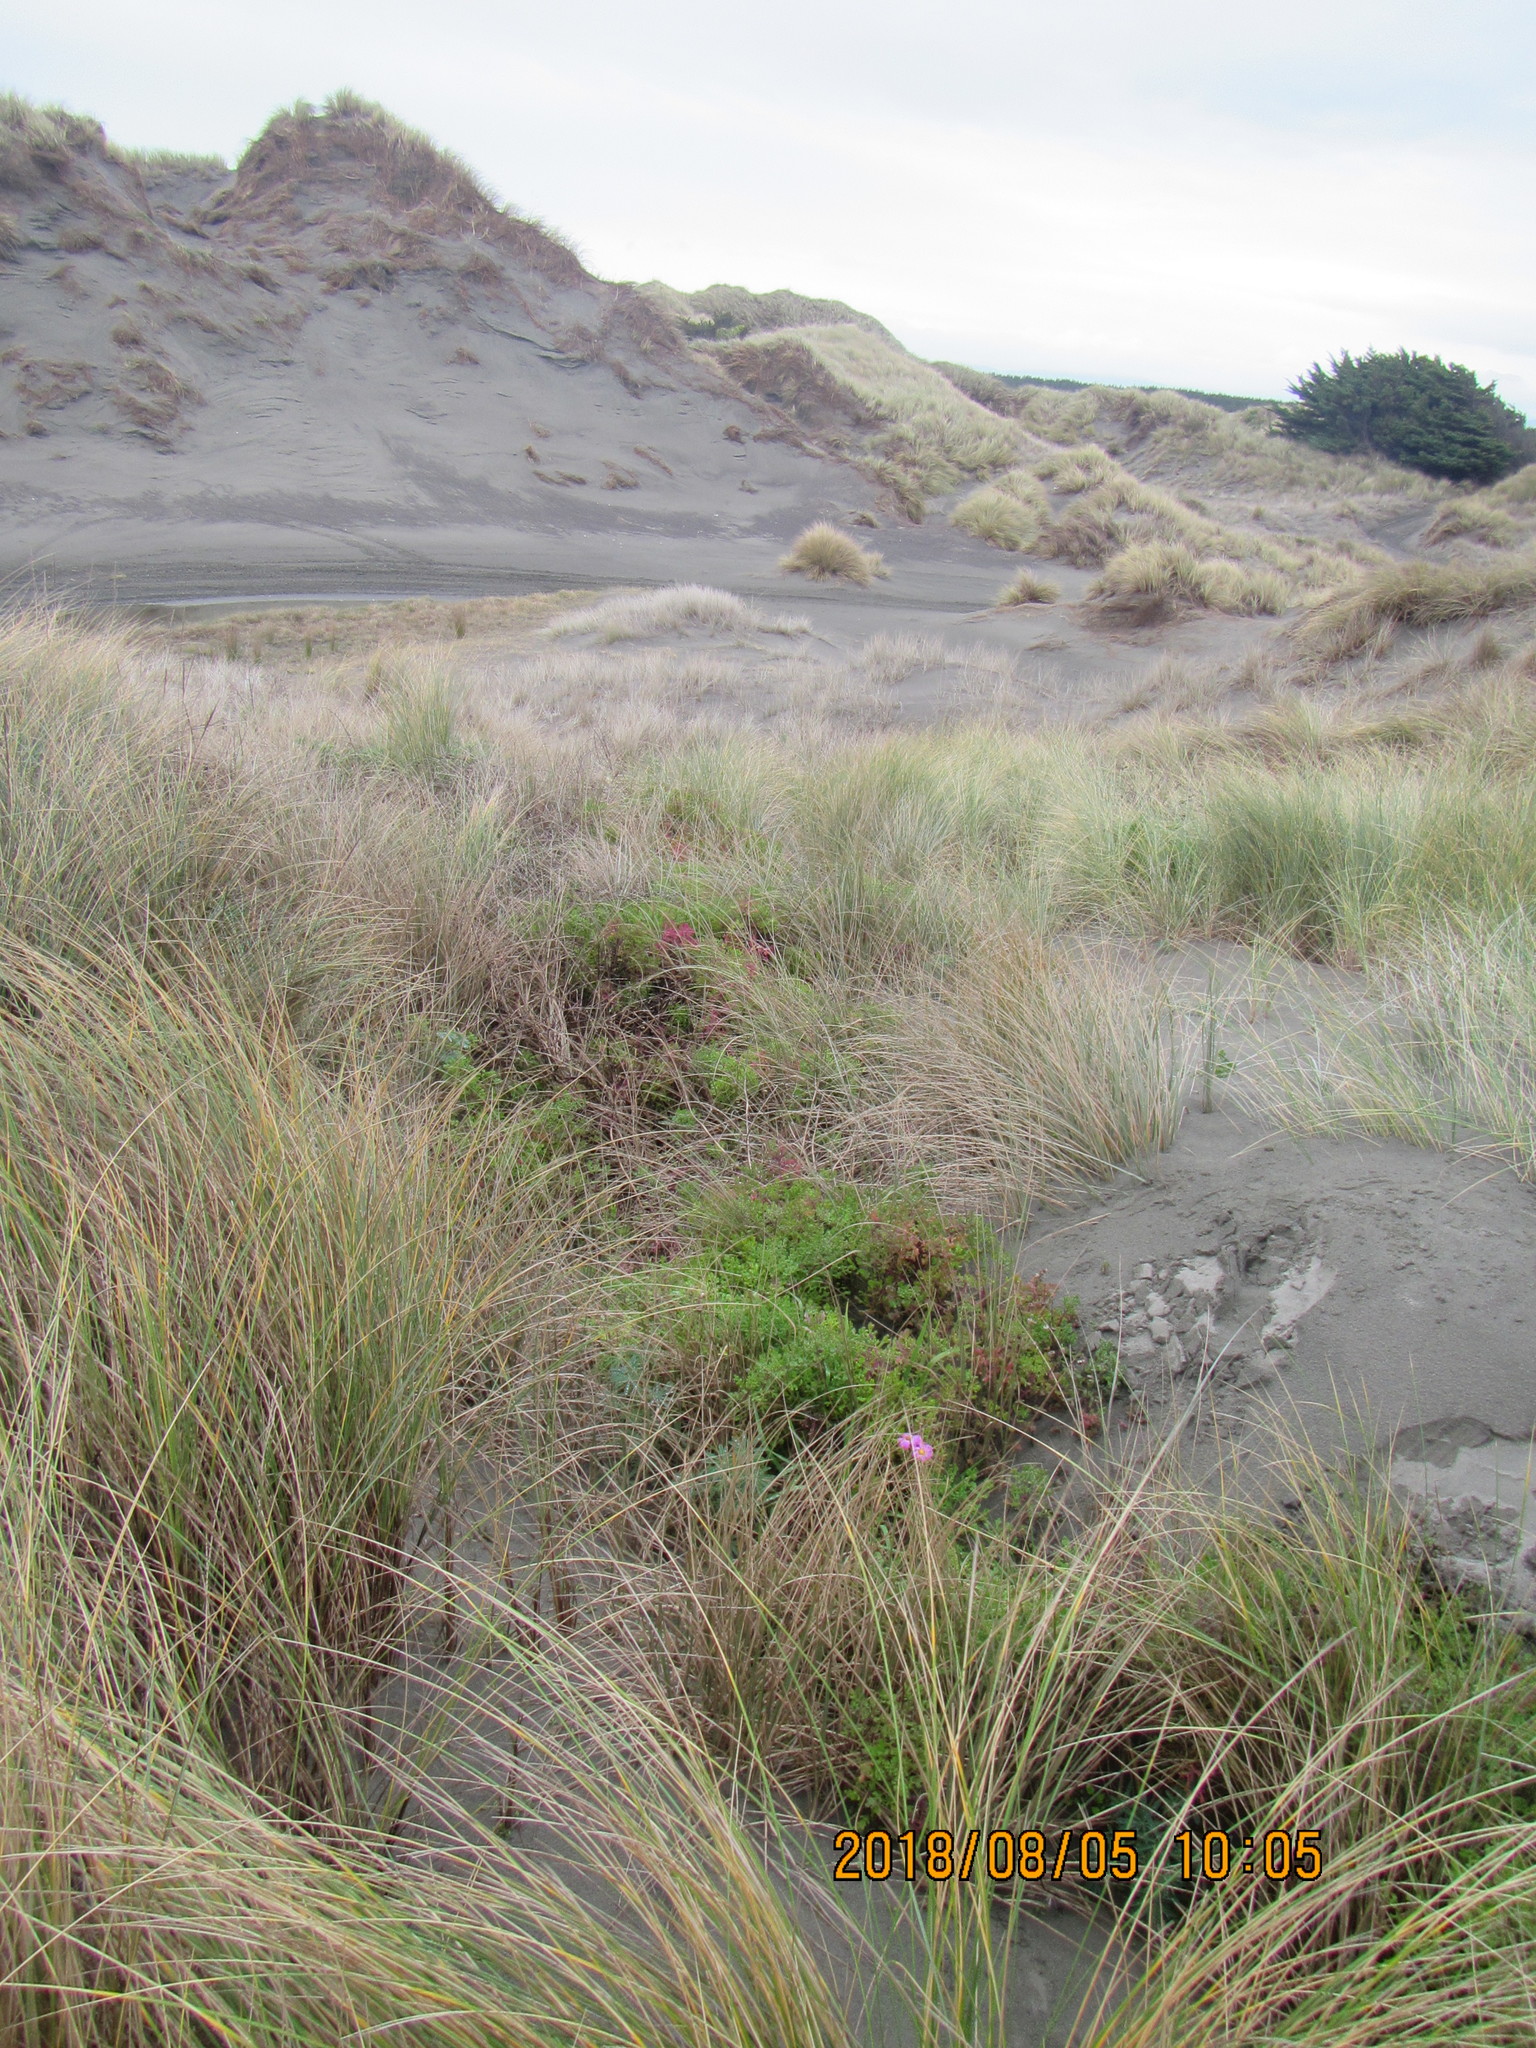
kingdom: Plantae
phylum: Tracheophyta
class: Magnoliopsida
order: Asterales
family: Asteraceae
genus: Senecio
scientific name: Senecio elegans
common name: Purple groundsel
